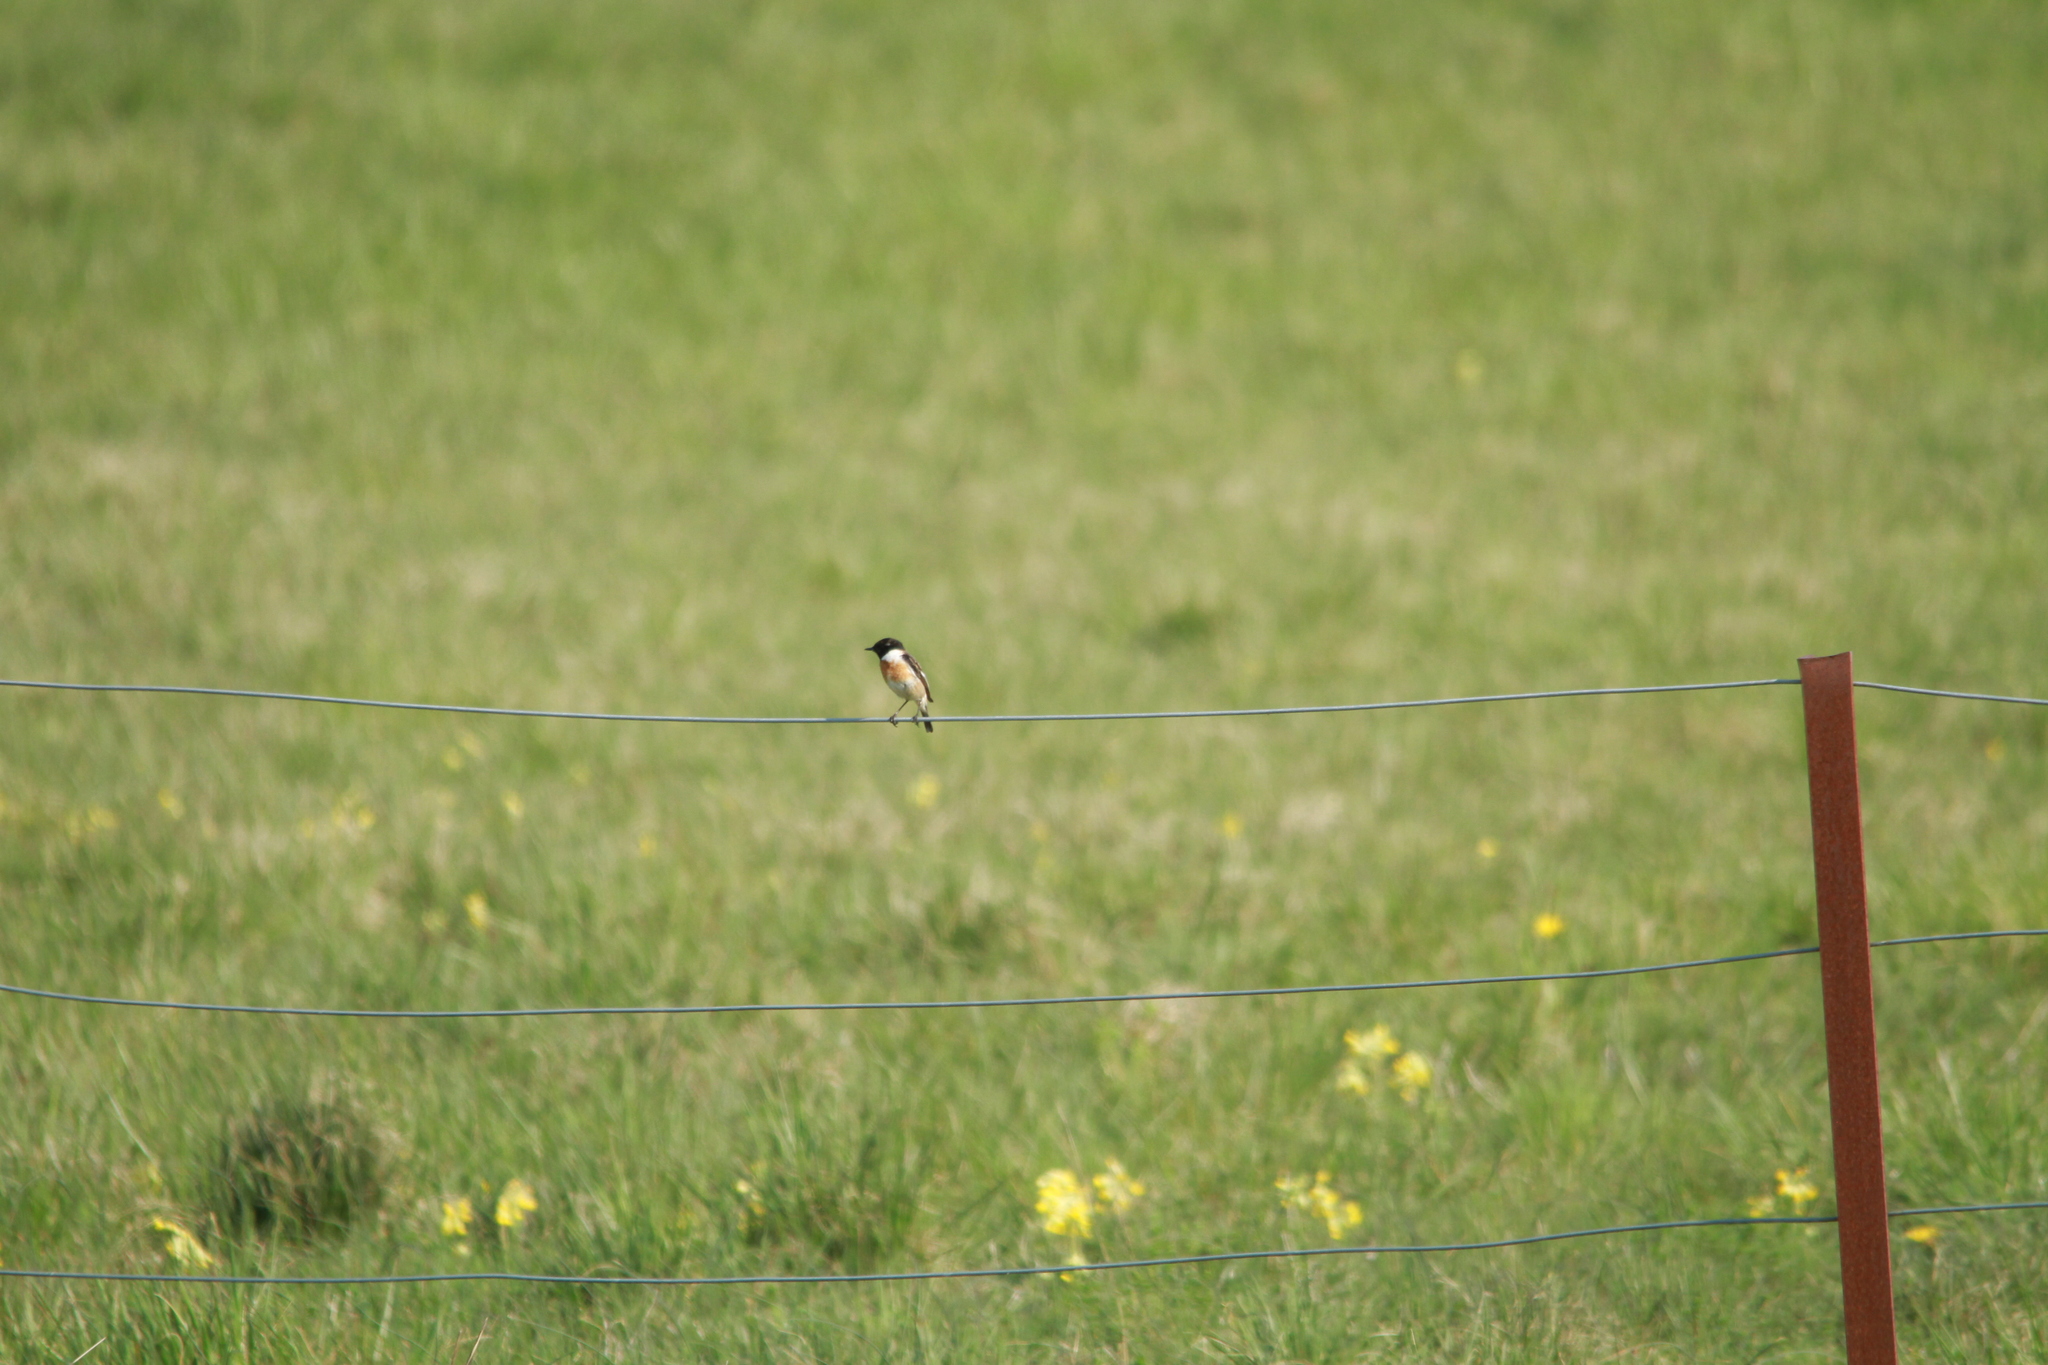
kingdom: Animalia
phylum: Chordata
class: Aves
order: Passeriformes
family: Muscicapidae
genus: Saxicola
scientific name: Saxicola rubicola
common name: European stonechat
